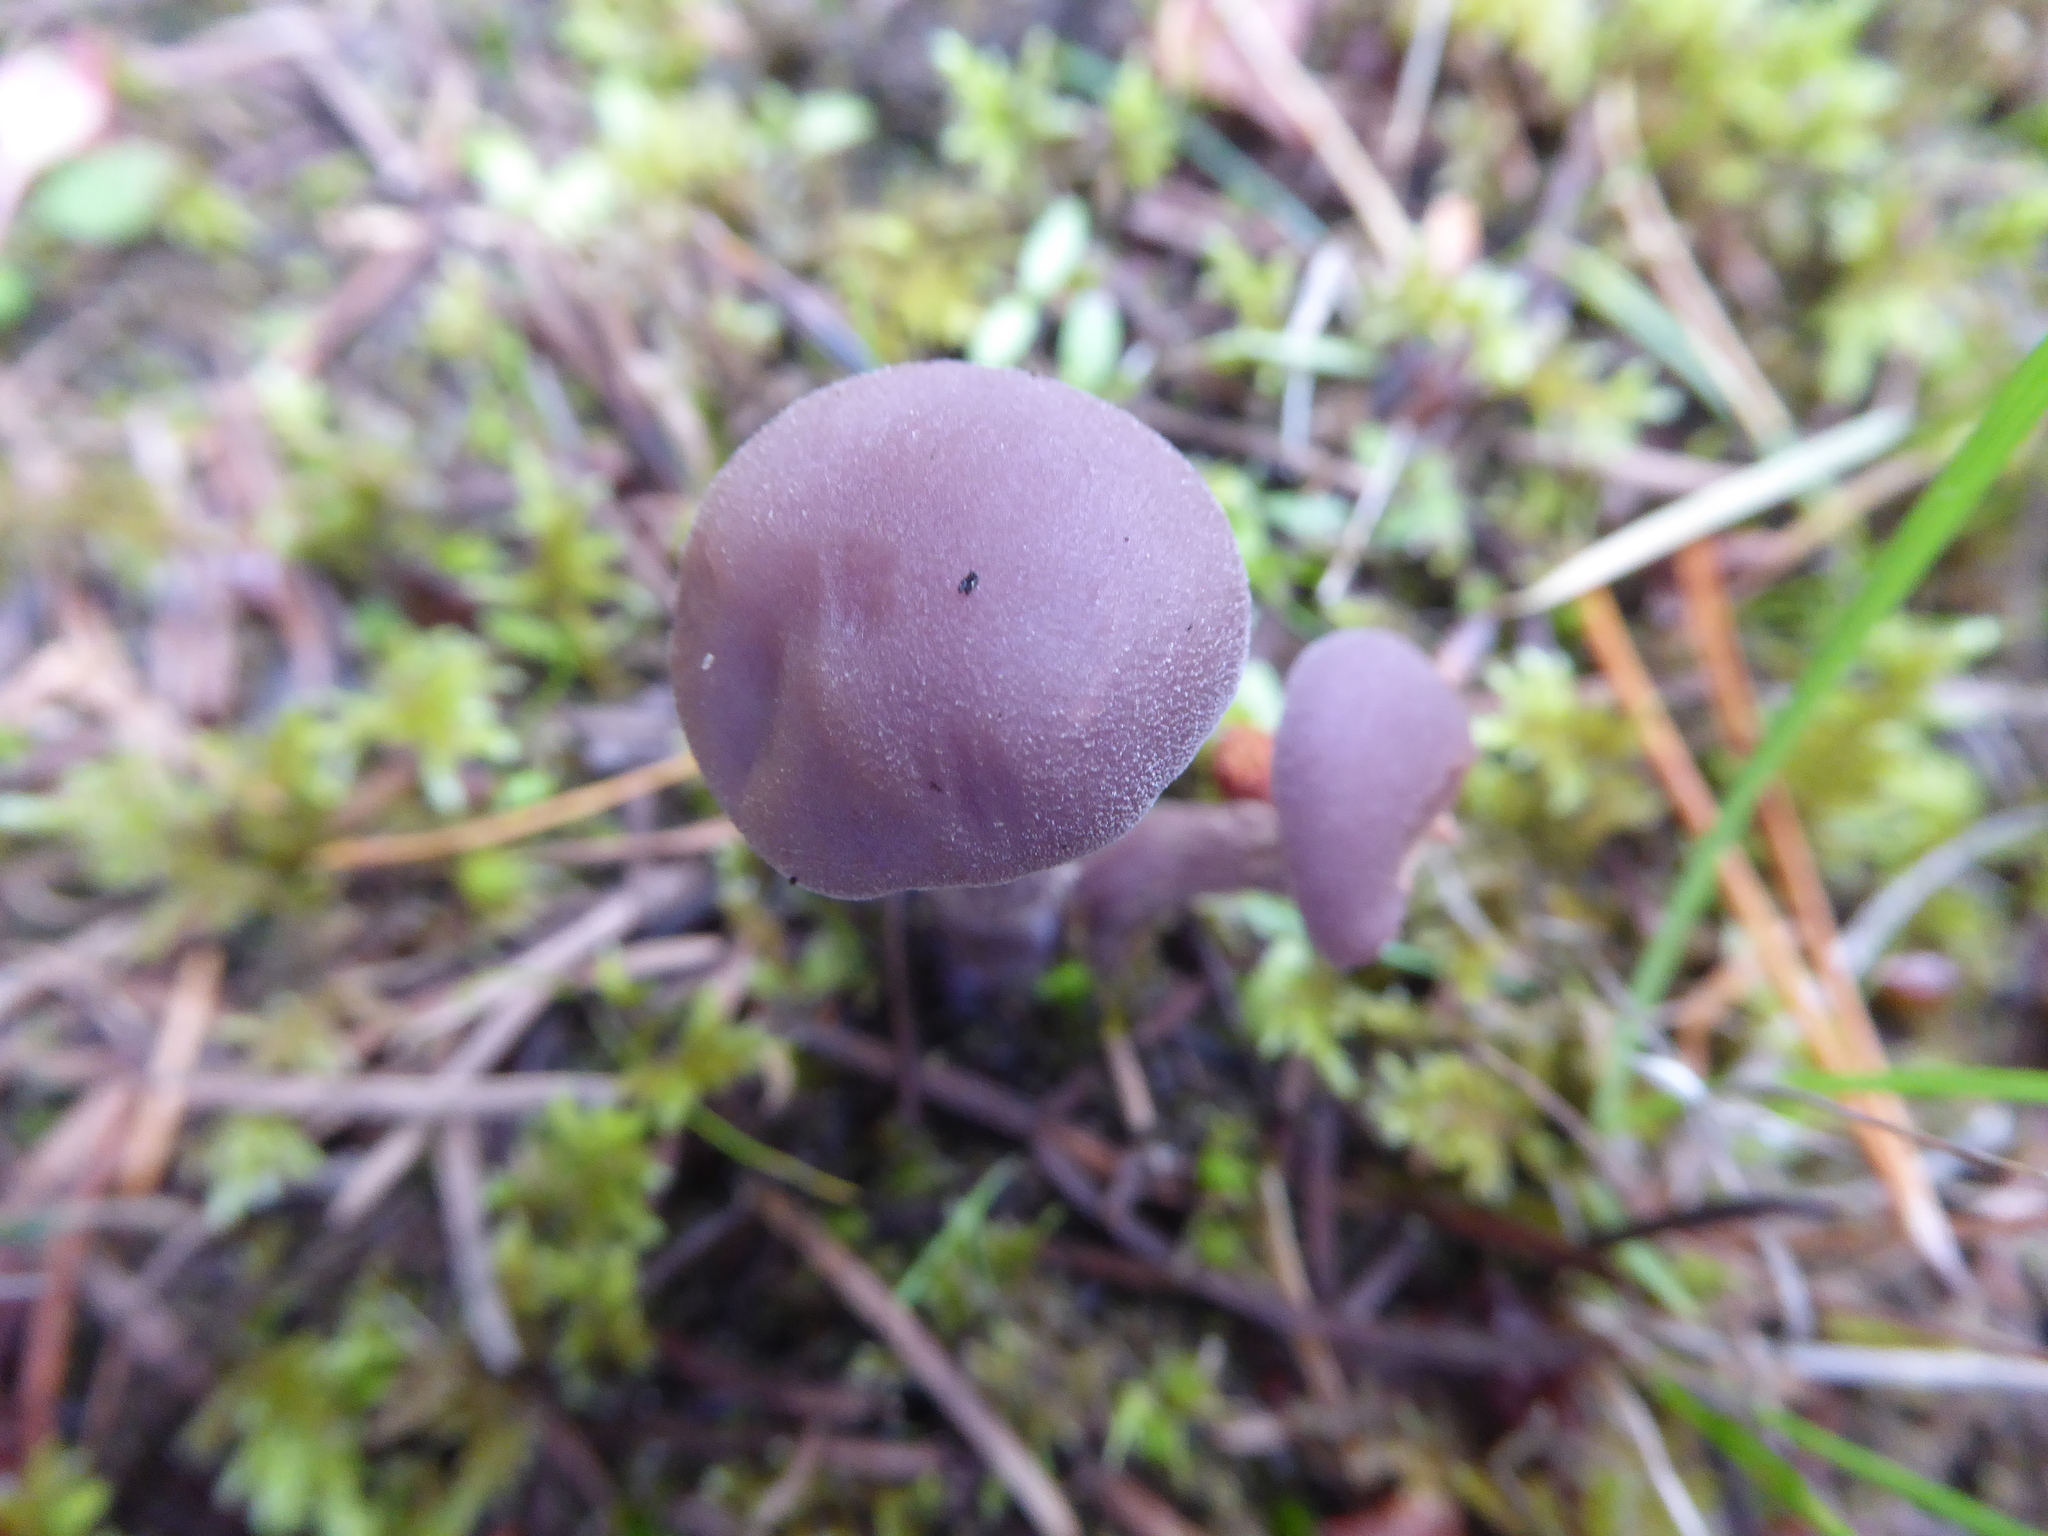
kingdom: Fungi
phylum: Basidiomycota
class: Agaricomycetes
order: Agaricales
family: Hydnangiaceae
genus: Laccaria
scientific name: Laccaria amethysteo-occidentalis
